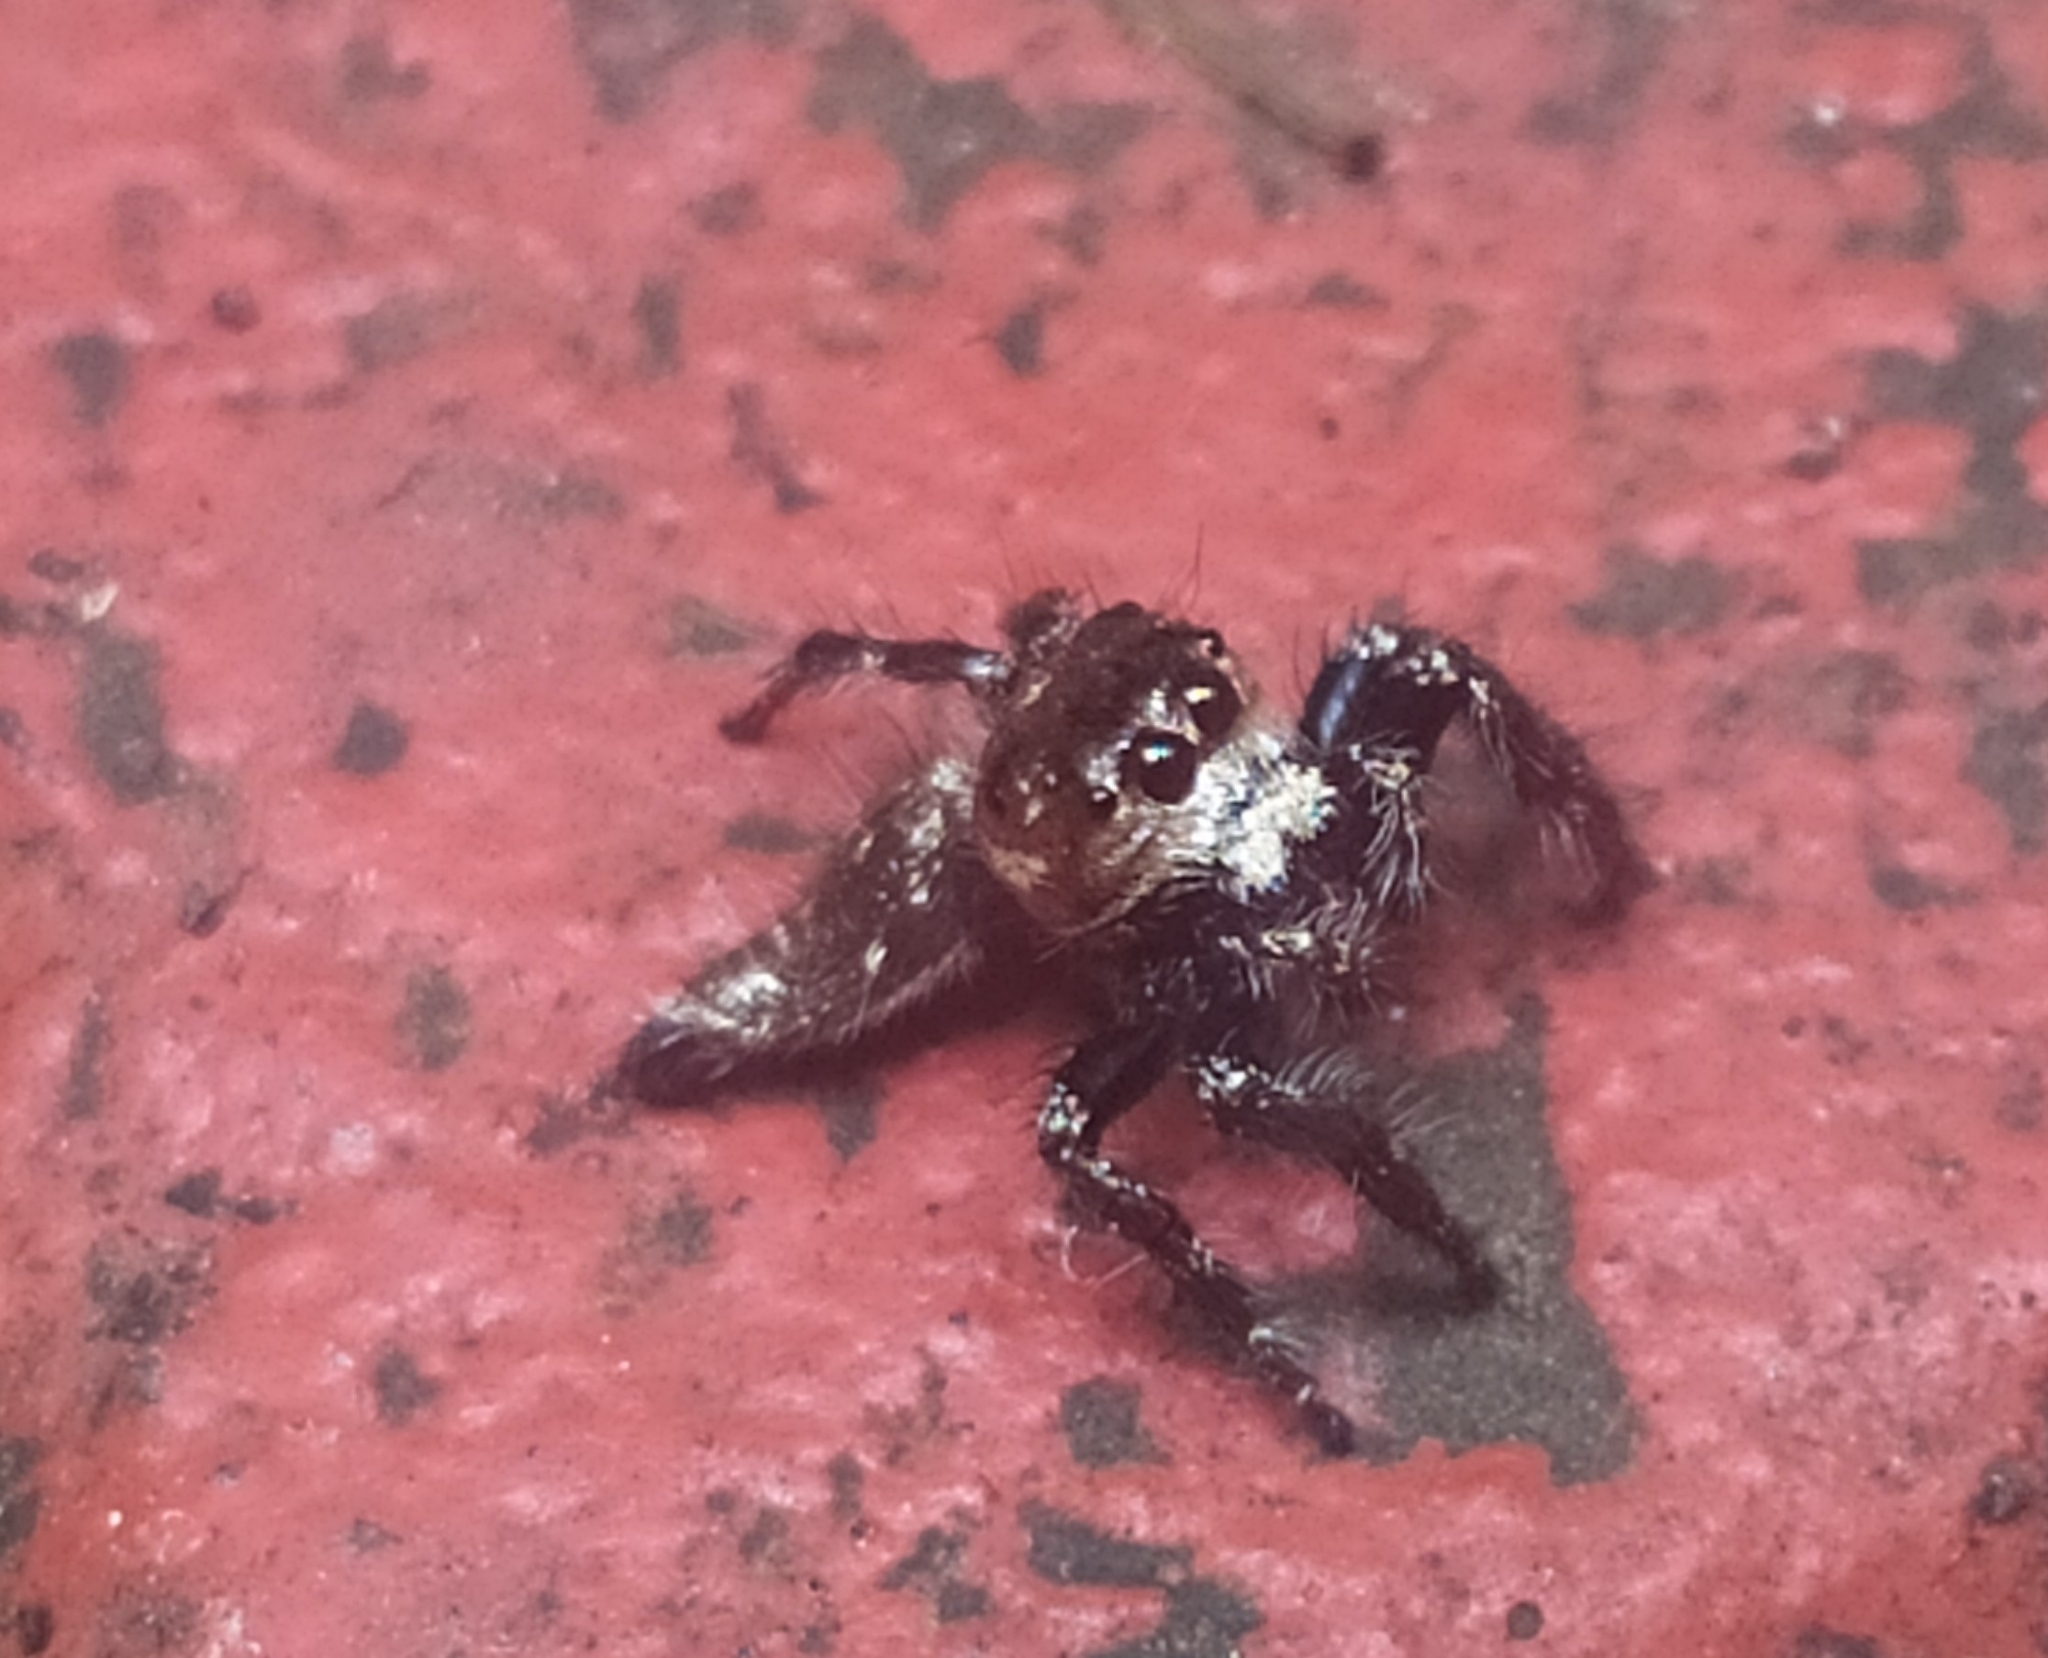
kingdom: Animalia
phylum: Arthropoda
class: Arachnida
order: Araneae
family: Salticidae
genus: Hyllus
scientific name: Hyllus semicupreus
